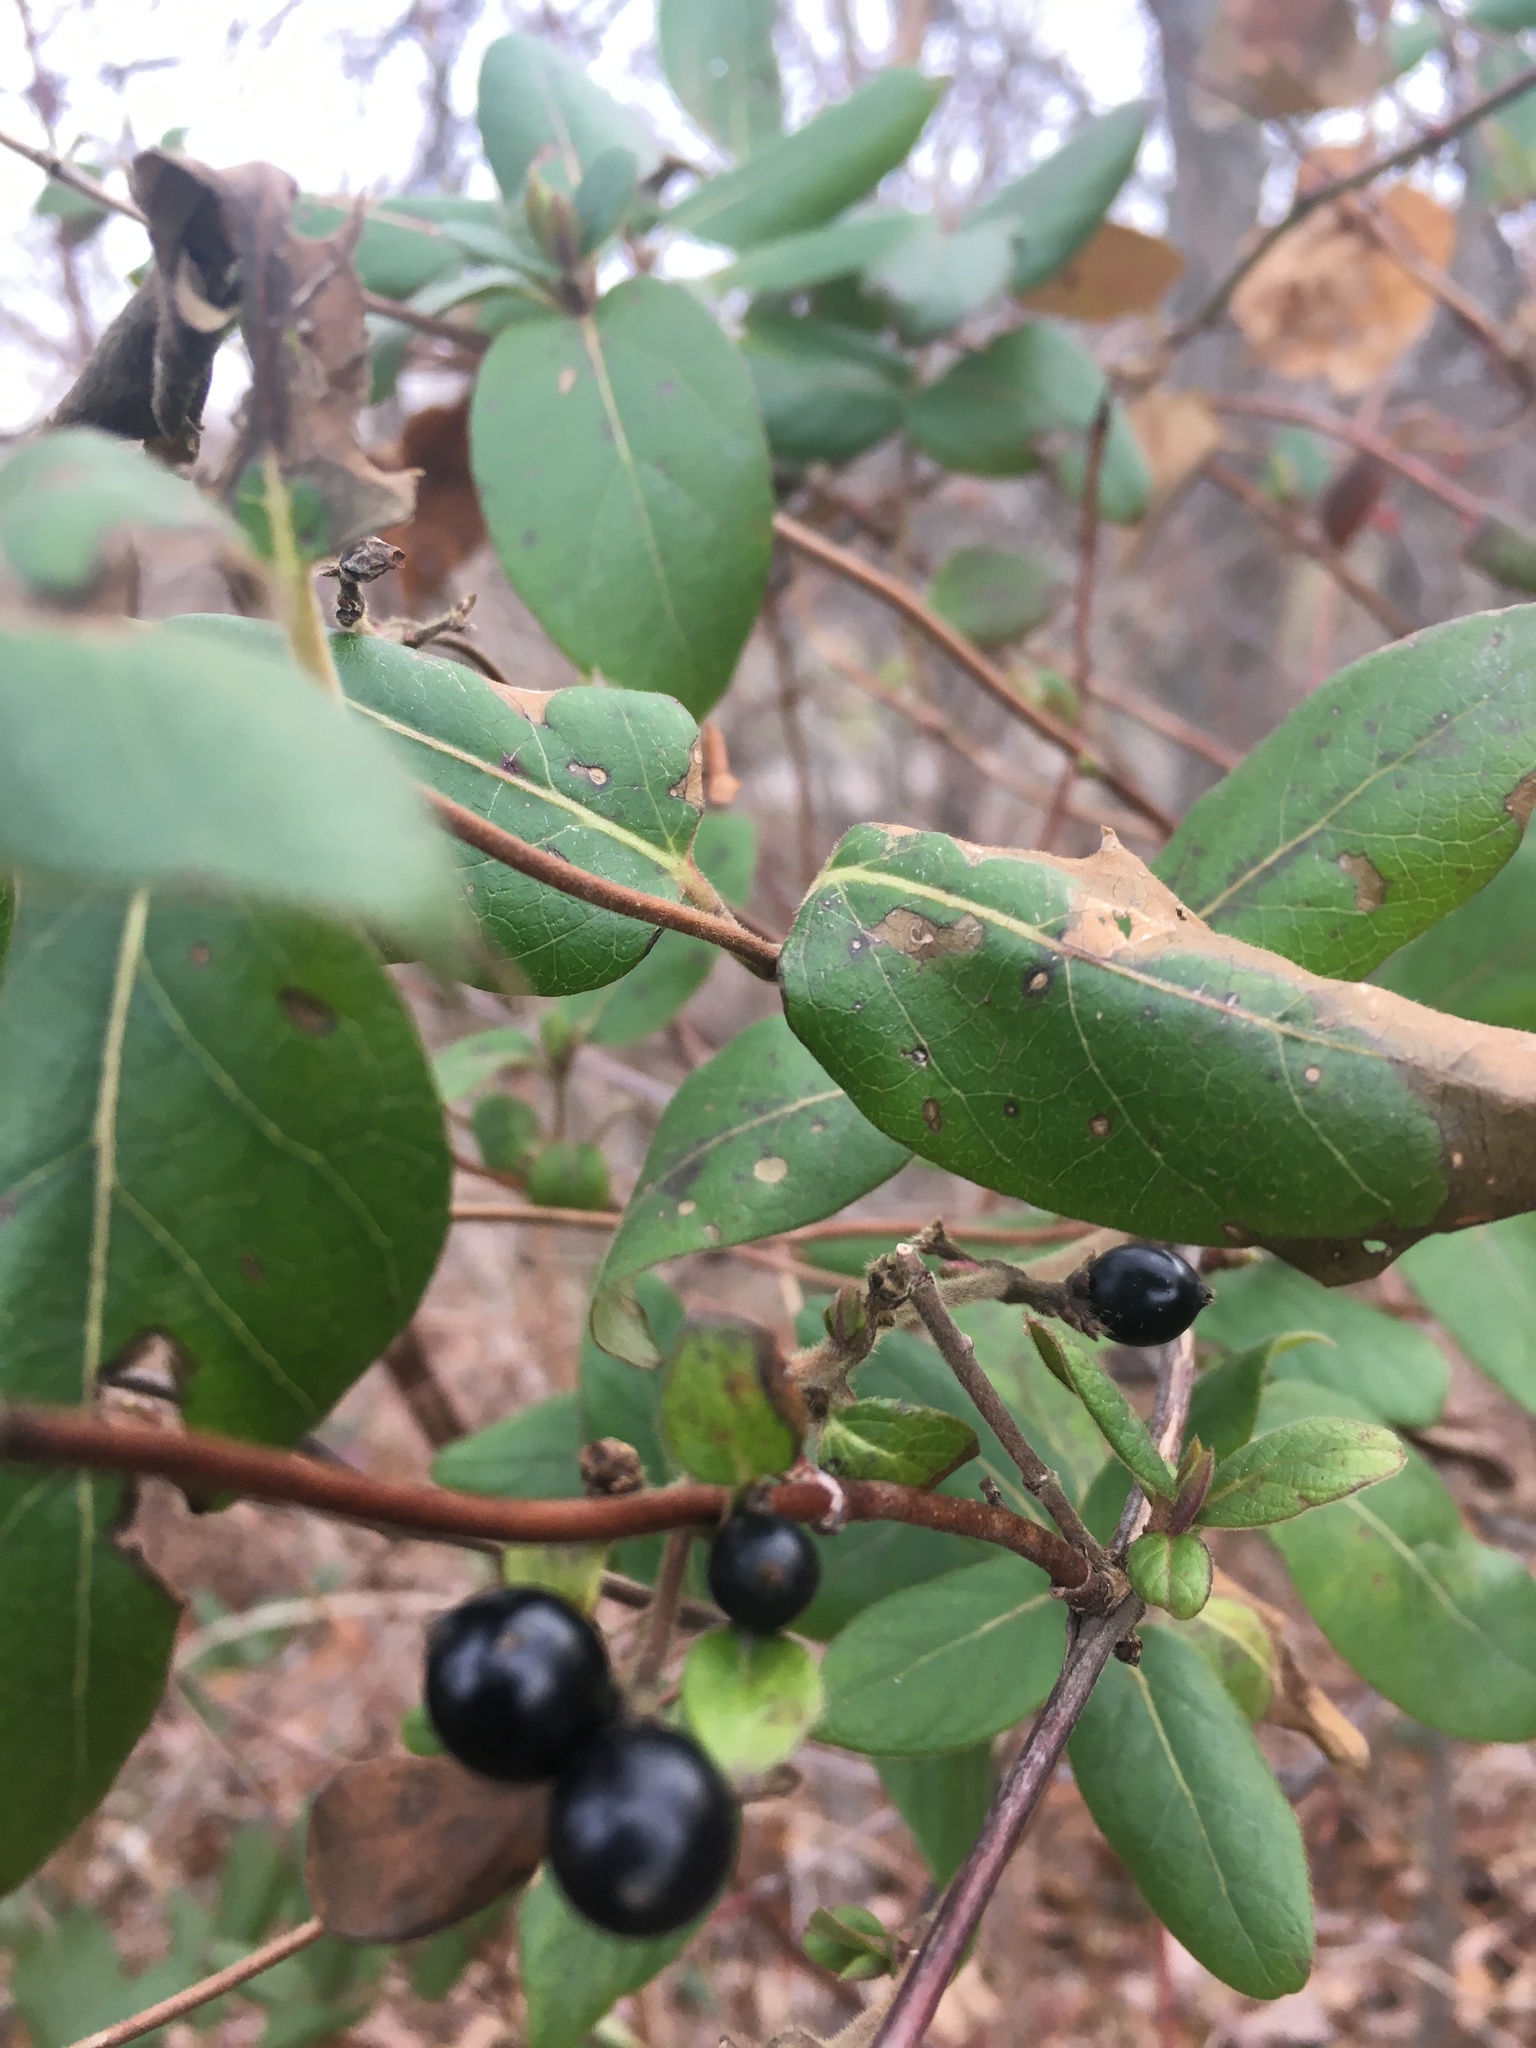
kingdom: Plantae
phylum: Tracheophyta
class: Magnoliopsida
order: Dipsacales
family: Caprifoliaceae
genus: Lonicera
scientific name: Lonicera japonica
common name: Japanese honeysuckle
